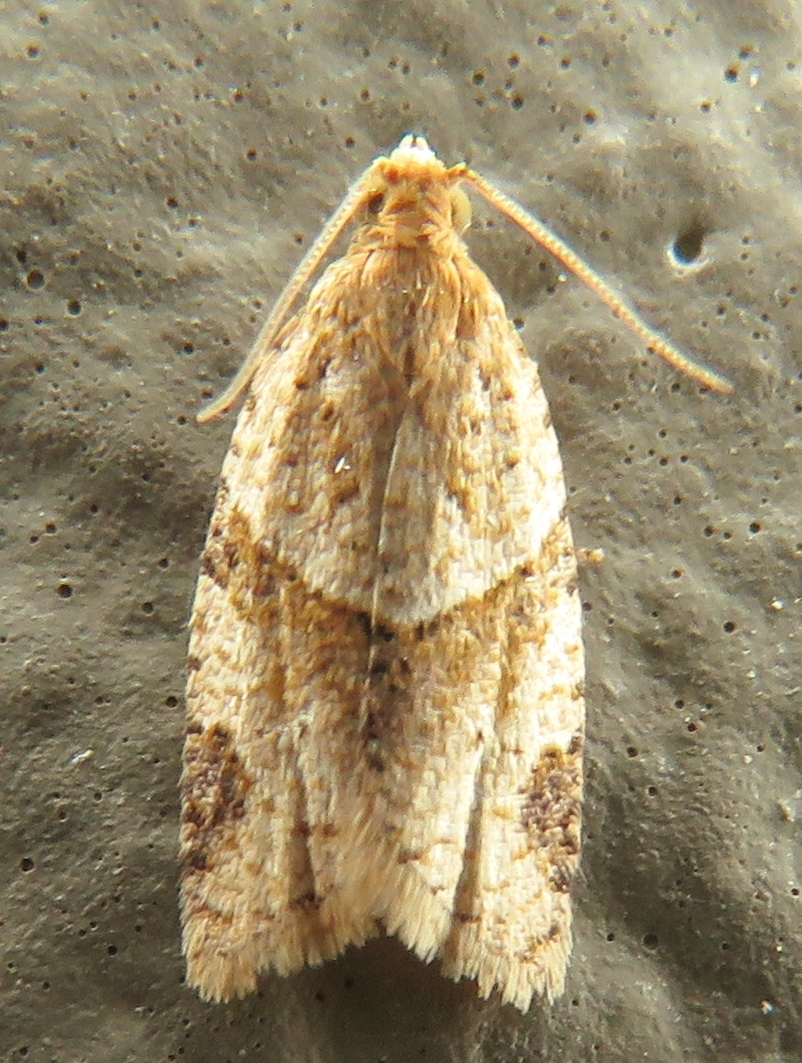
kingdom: Animalia
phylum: Arthropoda
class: Insecta
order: Lepidoptera
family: Tortricidae
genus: Clepsis
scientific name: Clepsis peritana
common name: Garden tortrix
